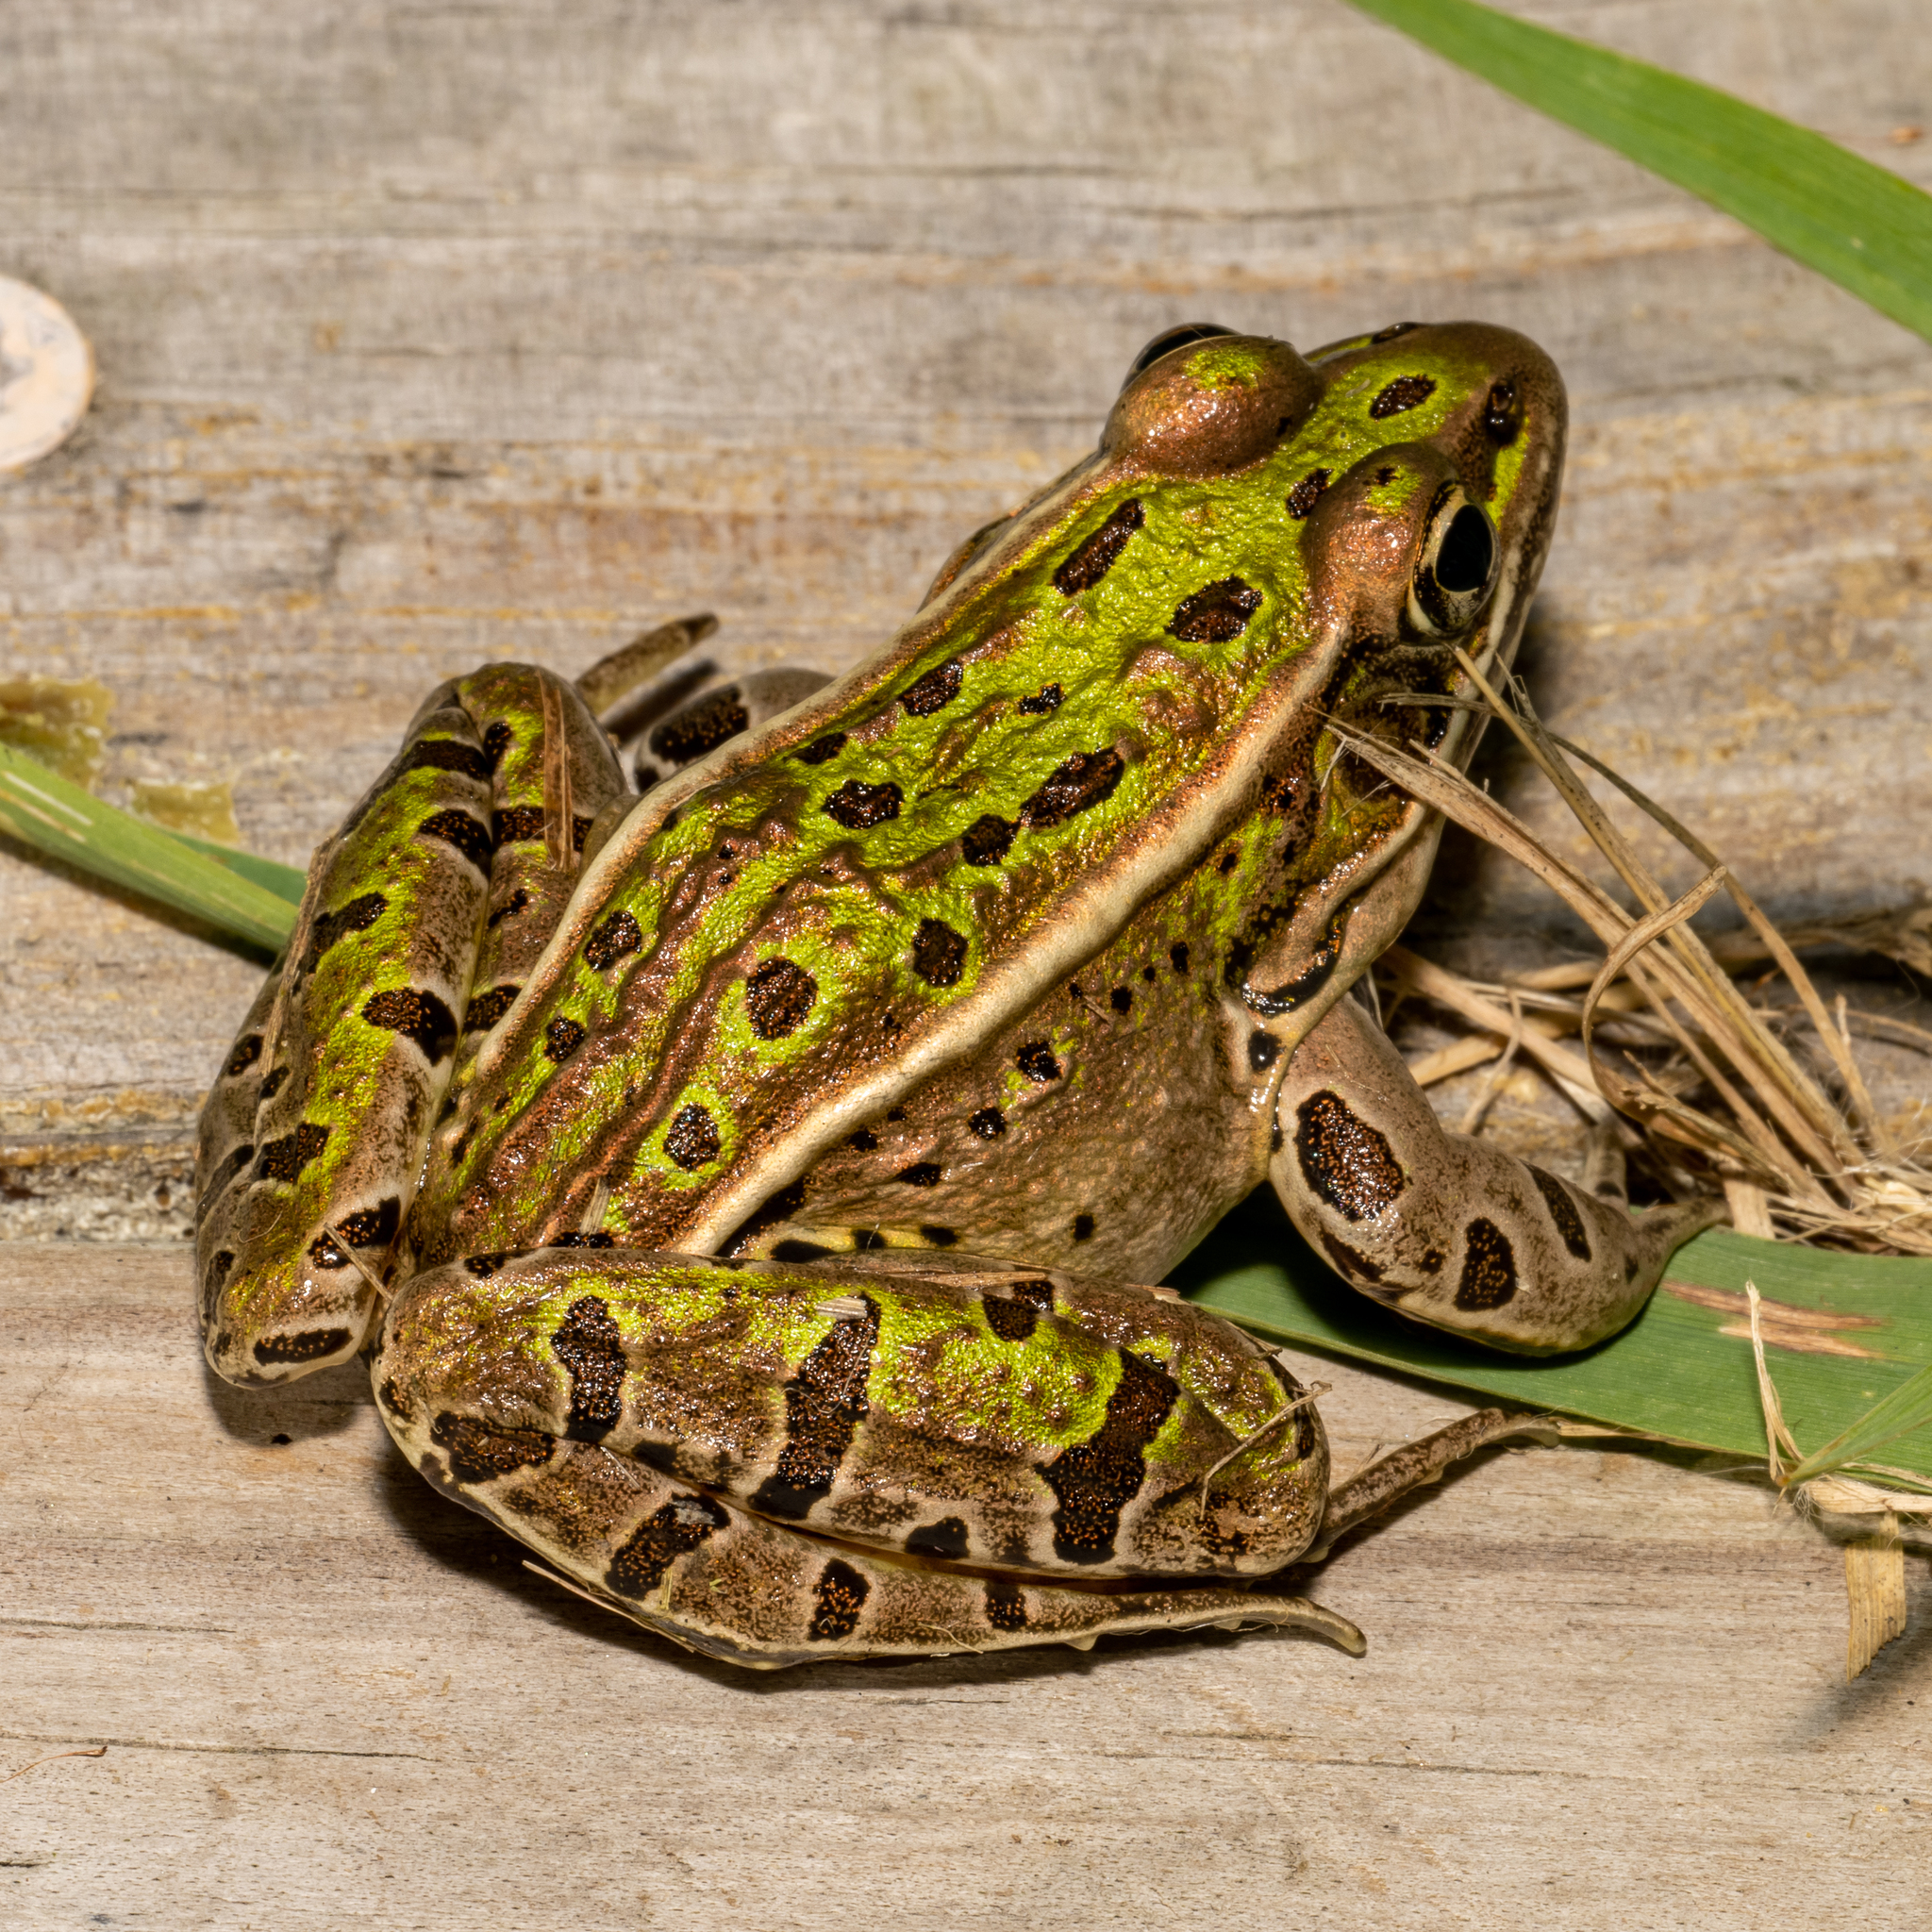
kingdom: Animalia
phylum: Chordata
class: Amphibia
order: Anura
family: Ranidae
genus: Lithobates
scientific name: Lithobates pipiens
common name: Northern leopard frog
